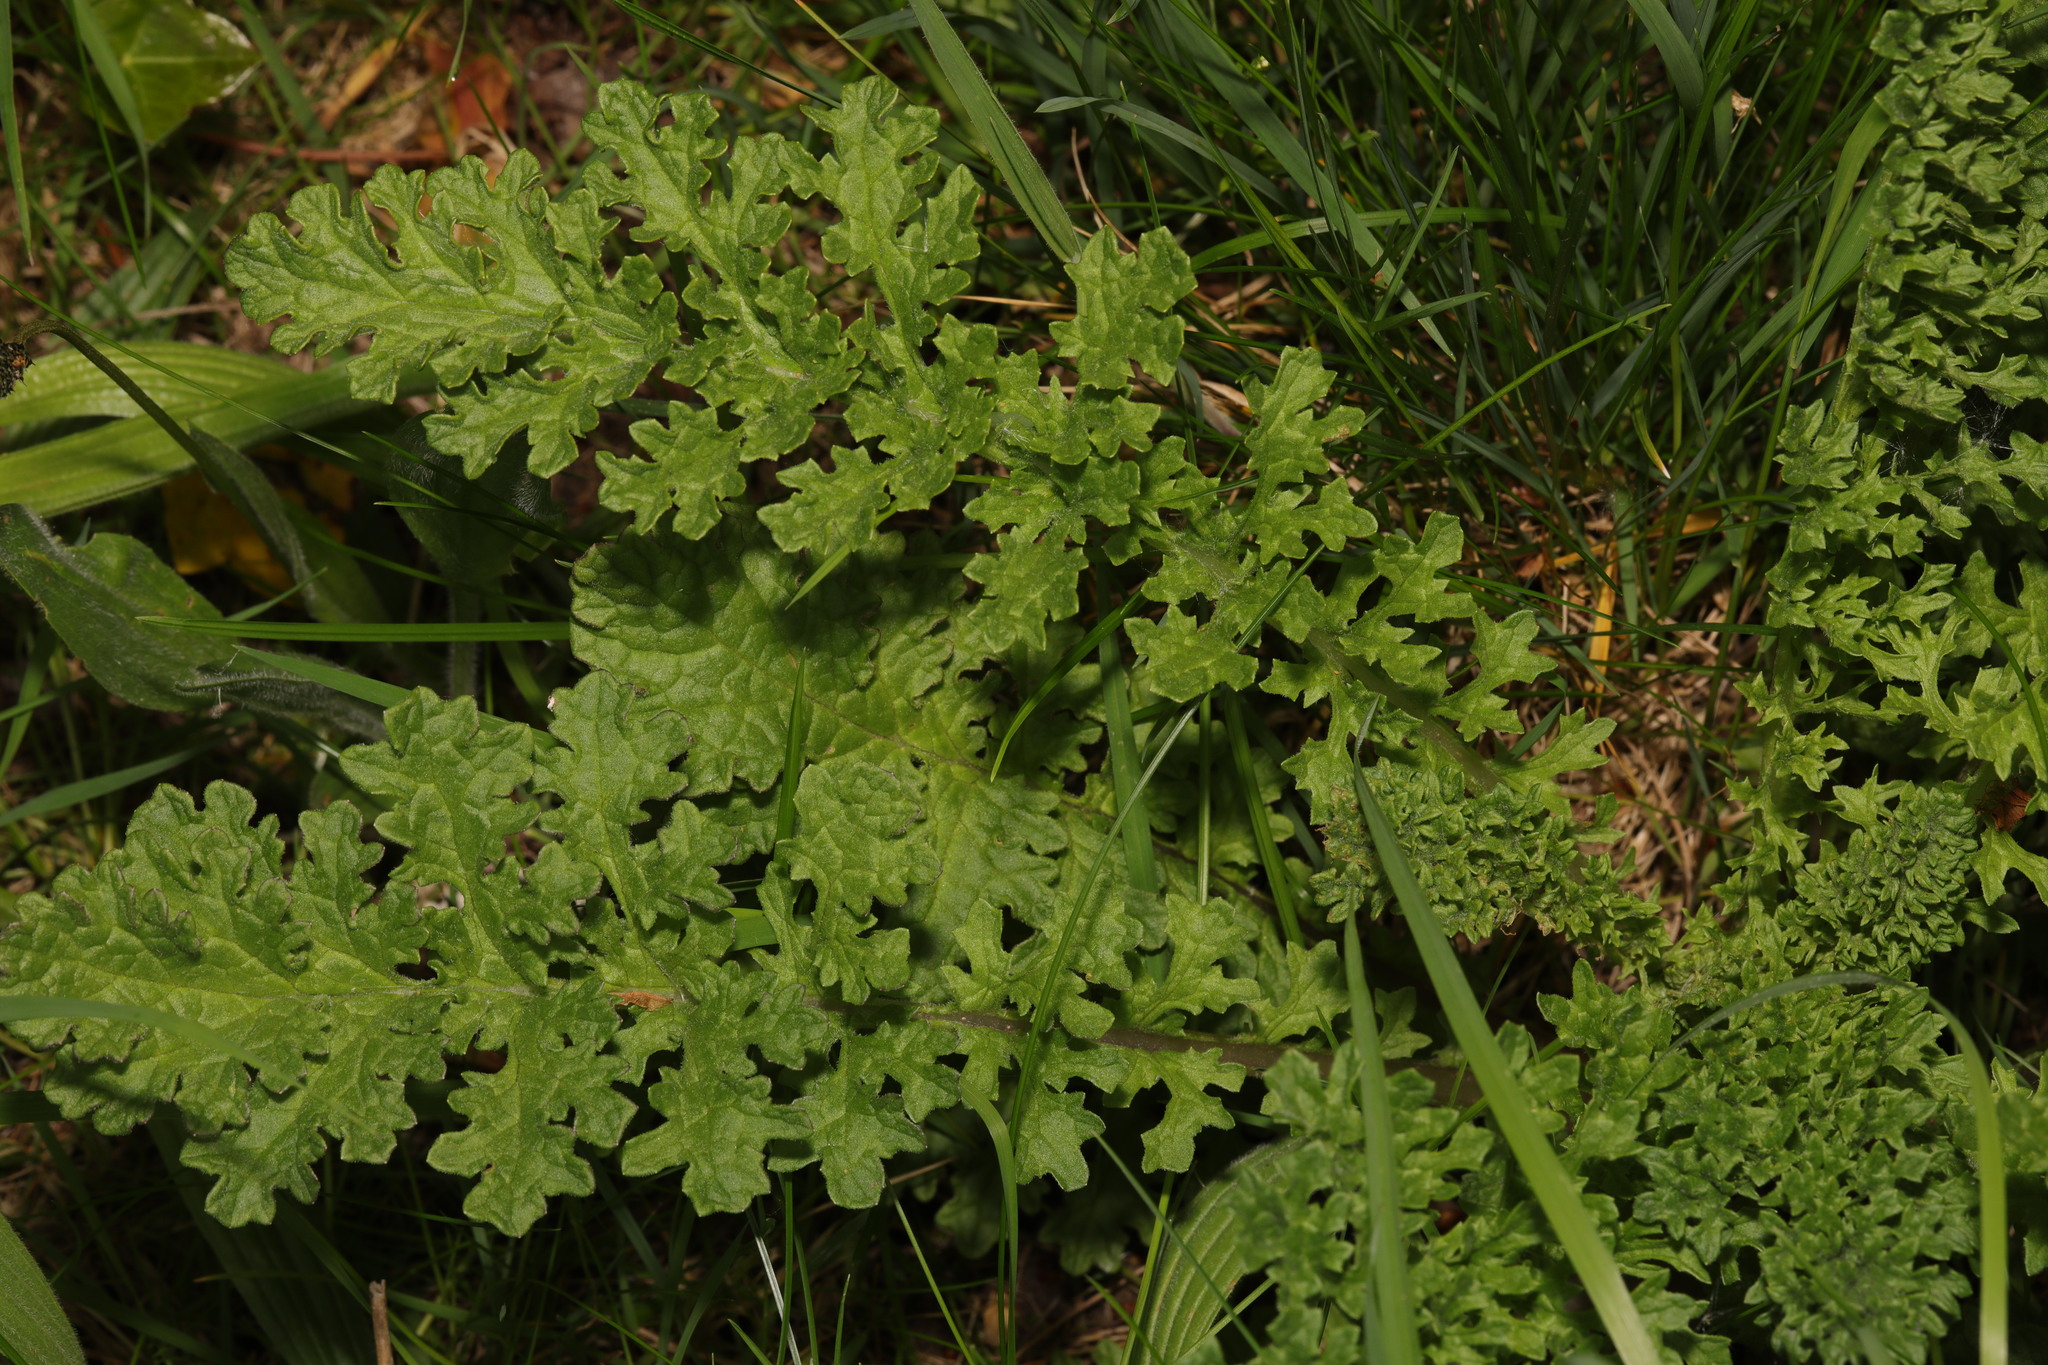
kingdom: Plantae
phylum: Tracheophyta
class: Magnoliopsida
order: Asterales
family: Asteraceae
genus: Jacobaea
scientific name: Jacobaea vulgaris
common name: Stinking willie
